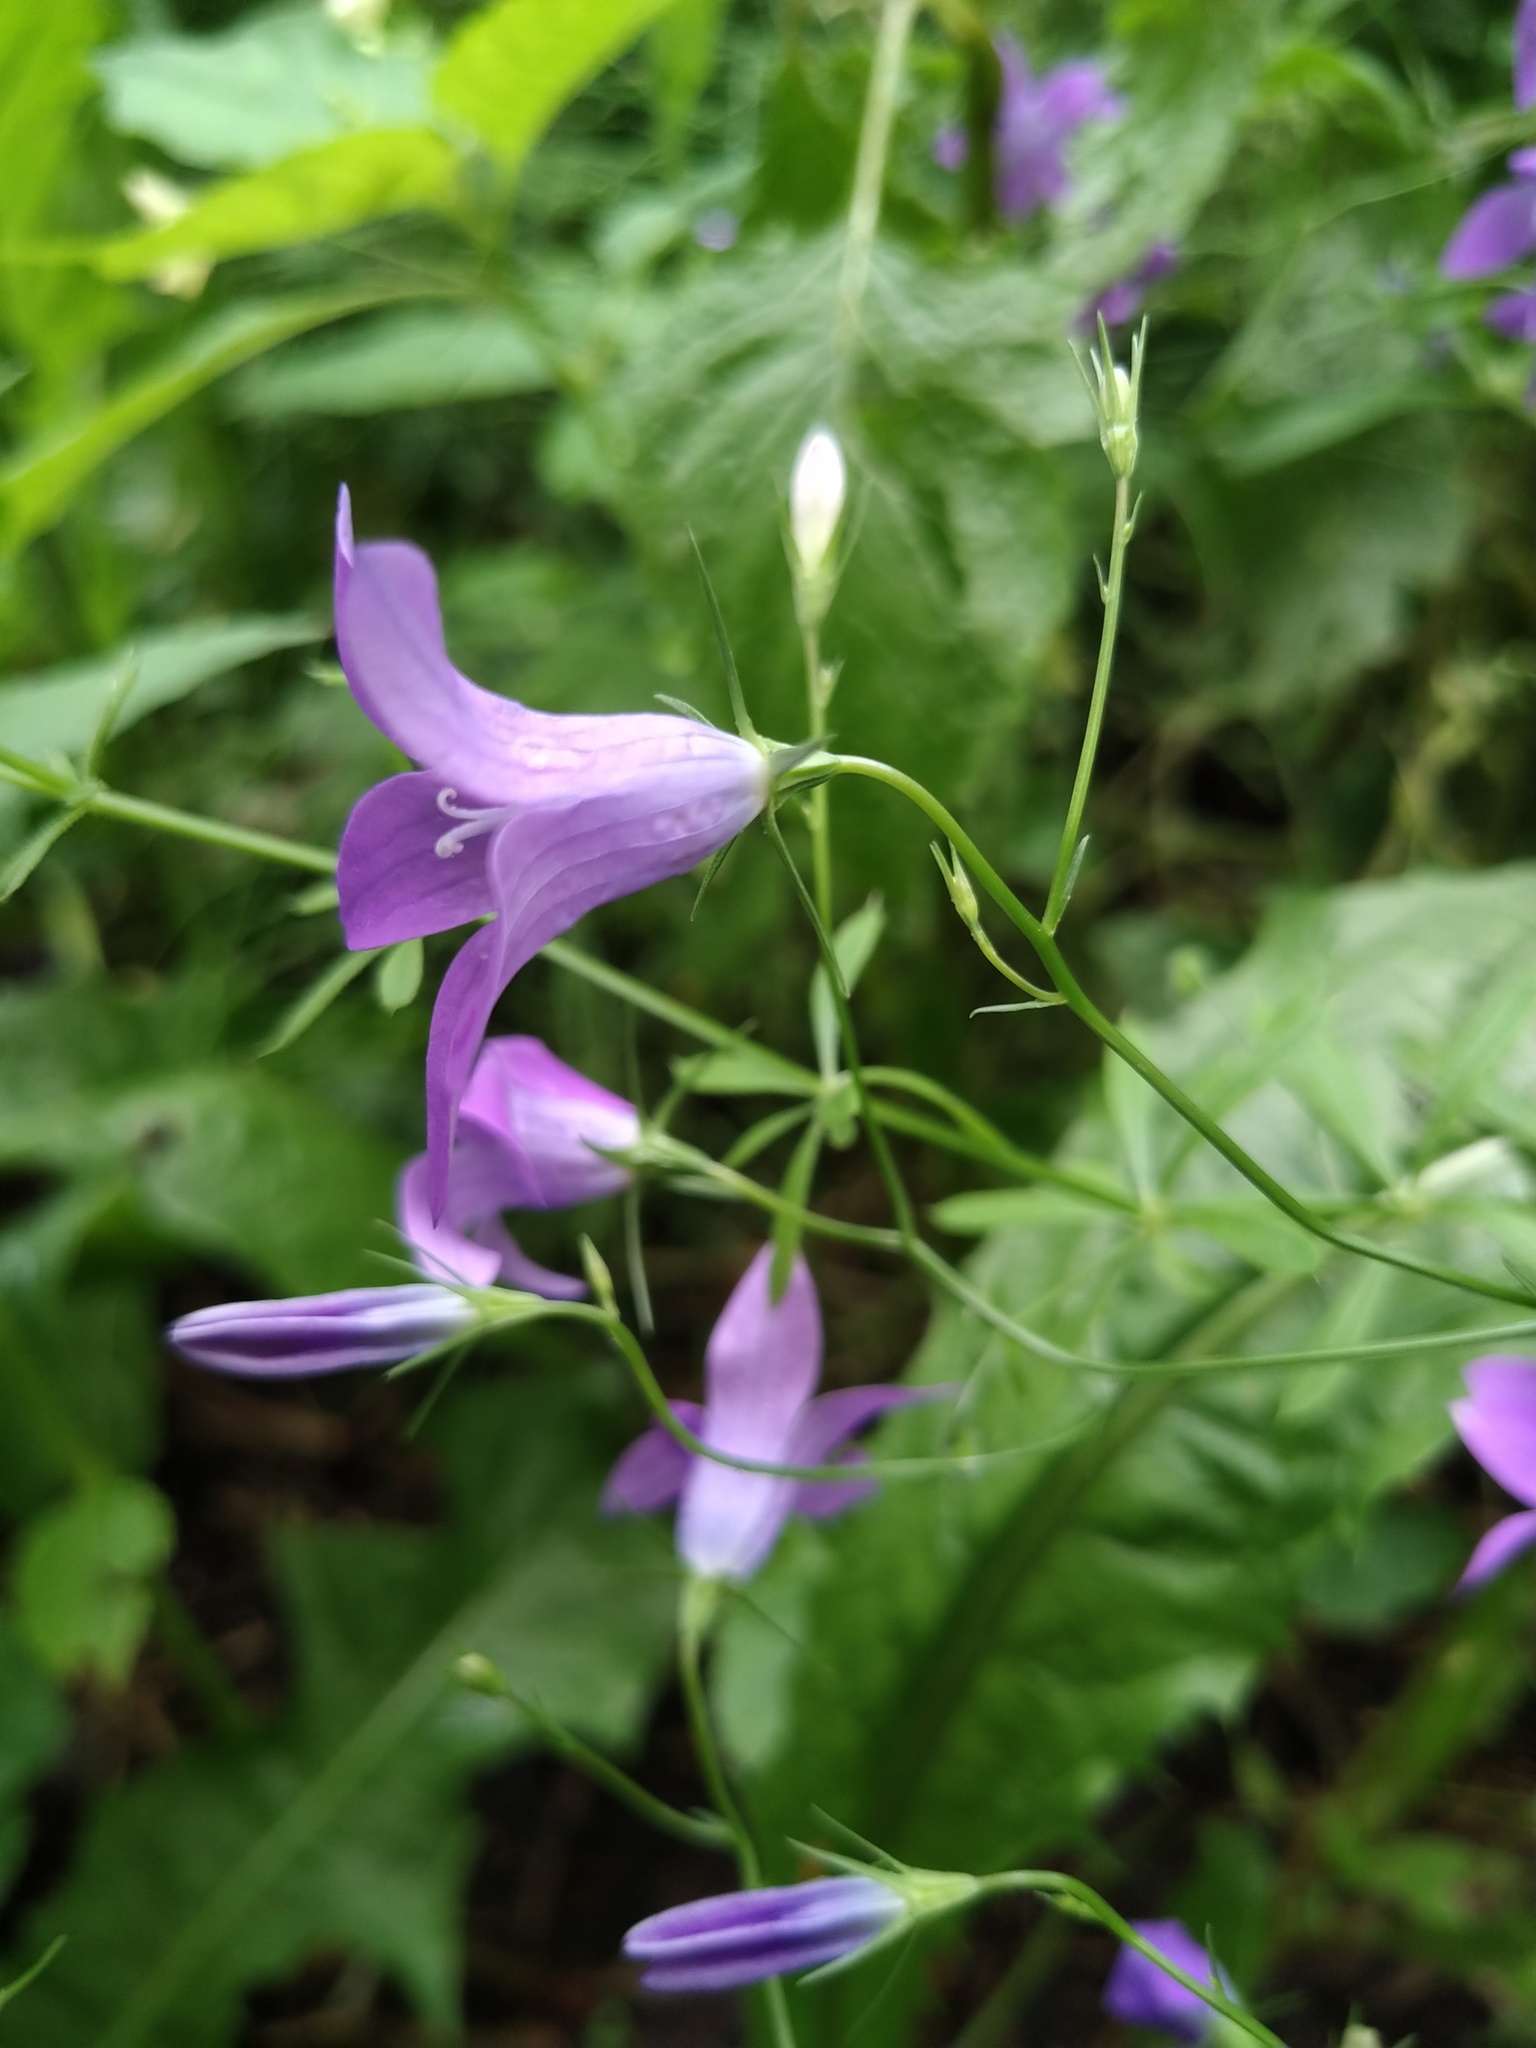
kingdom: Plantae
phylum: Tracheophyta
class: Magnoliopsida
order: Asterales
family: Campanulaceae
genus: Campanula
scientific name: Campanula patula
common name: Spreading bellflower
